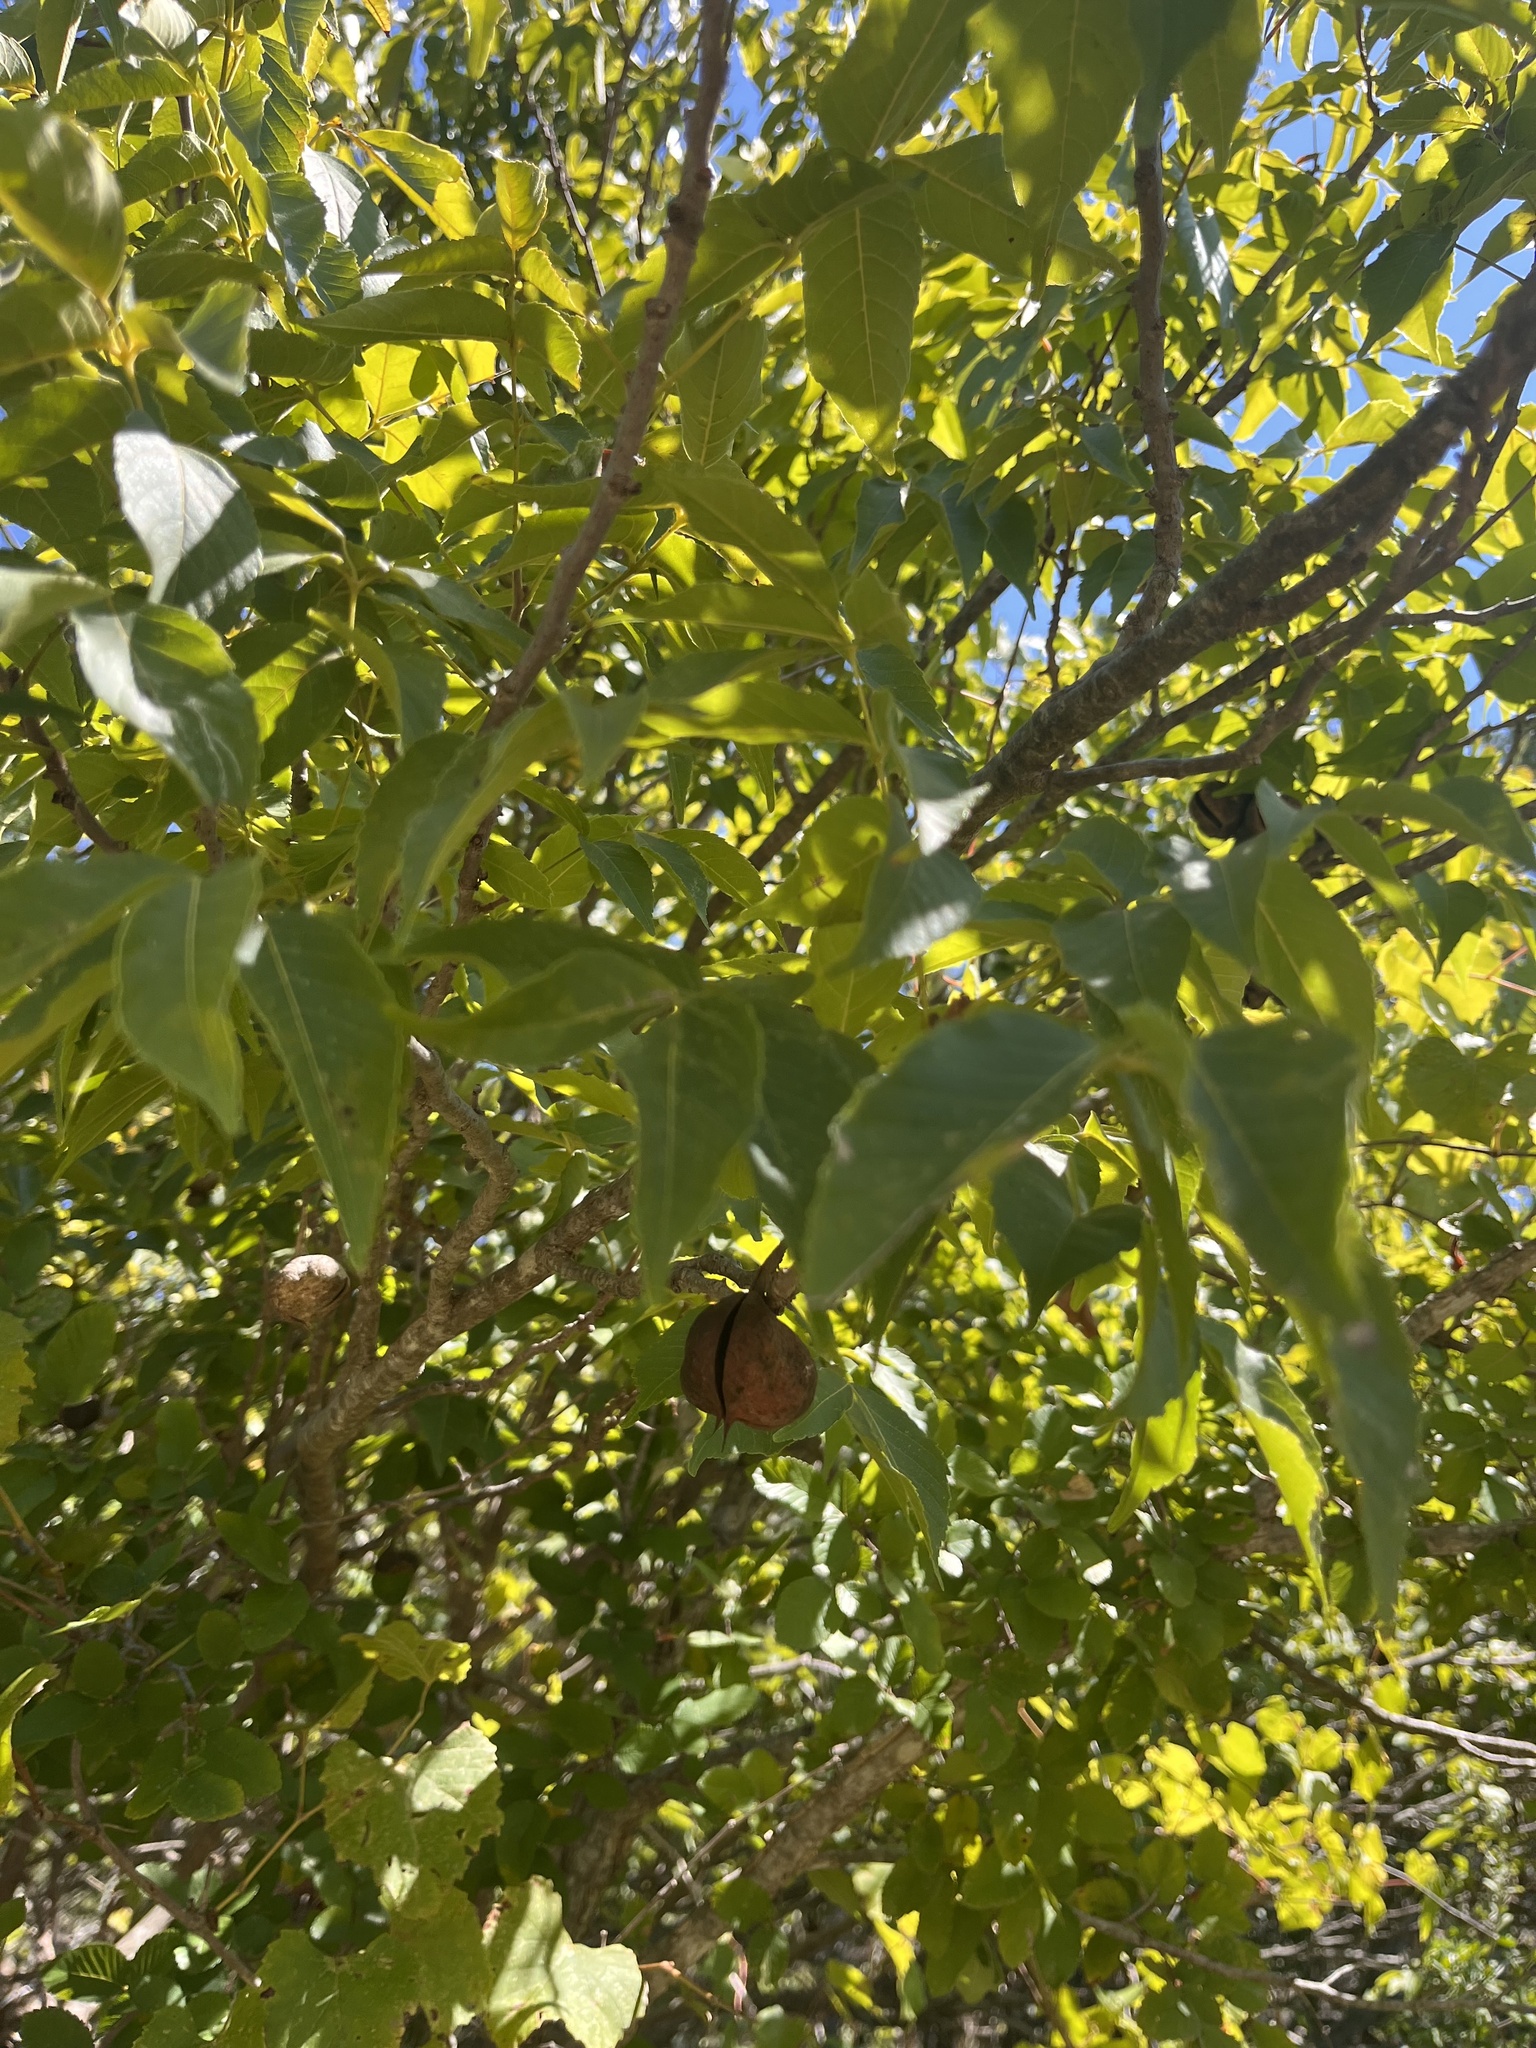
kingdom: Plantae
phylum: Tracheophyta
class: Magnoliopsida
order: Sapindales
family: Sapindaceae
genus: Ungnadia
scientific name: Ungnadia speciosa
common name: Texas-buckeye
